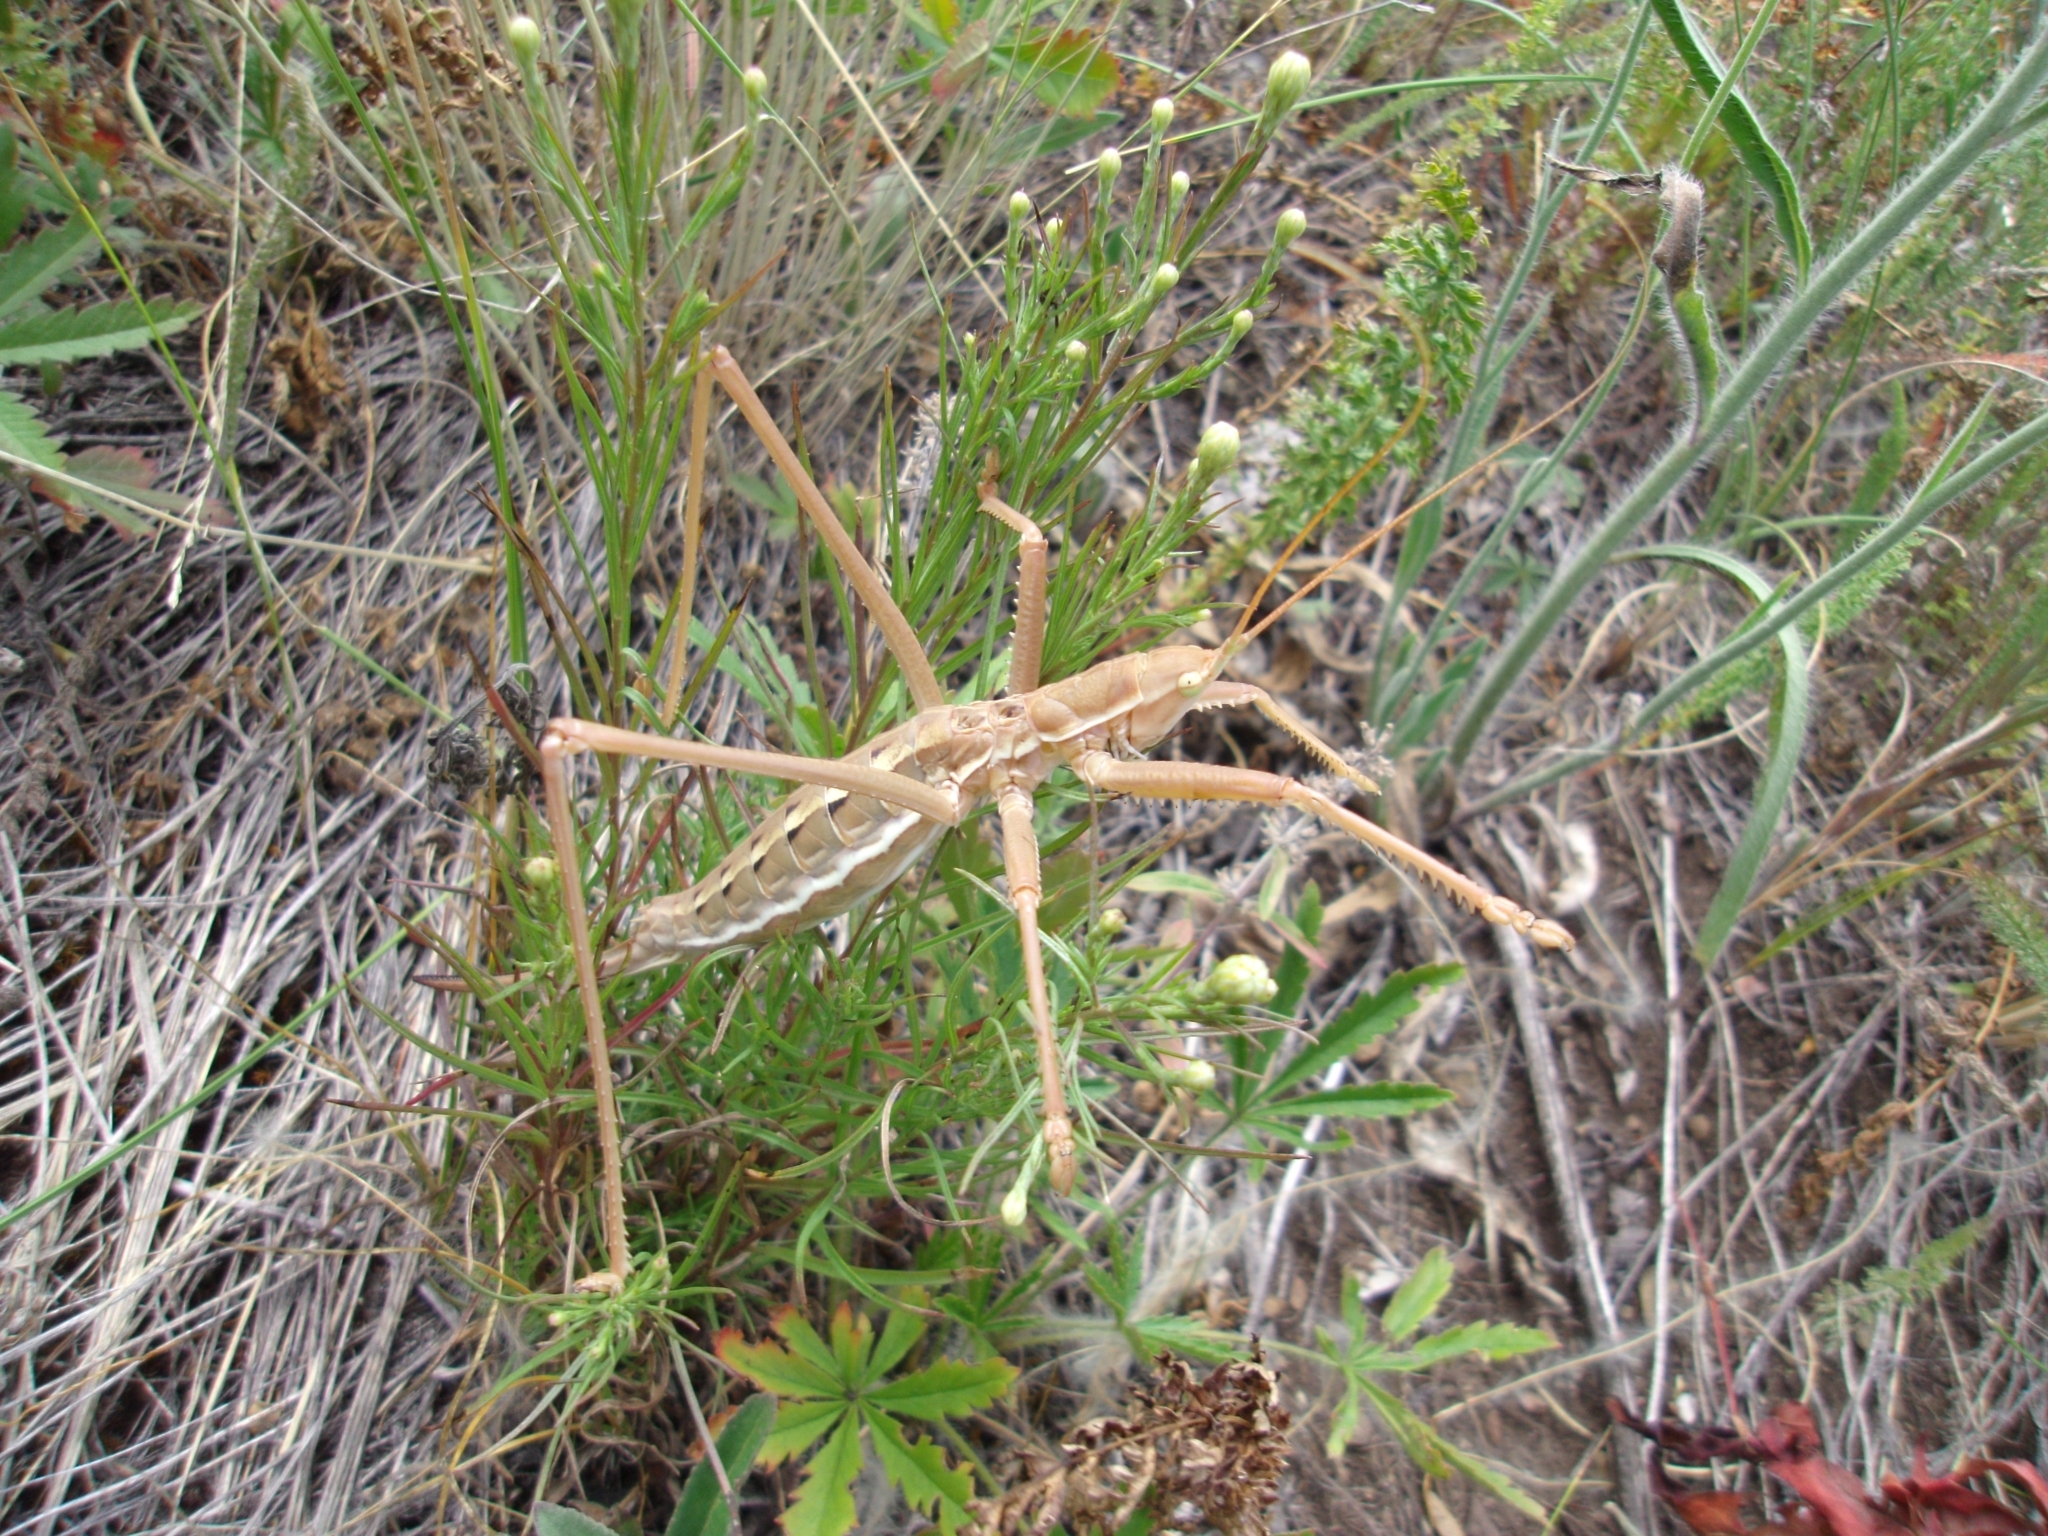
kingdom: Animalia
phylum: Arthropoda
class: Insecta
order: Orthoptera
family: Tettigoniidae
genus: Saga
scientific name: Saga pedo
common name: Common predatory bush-cricket
